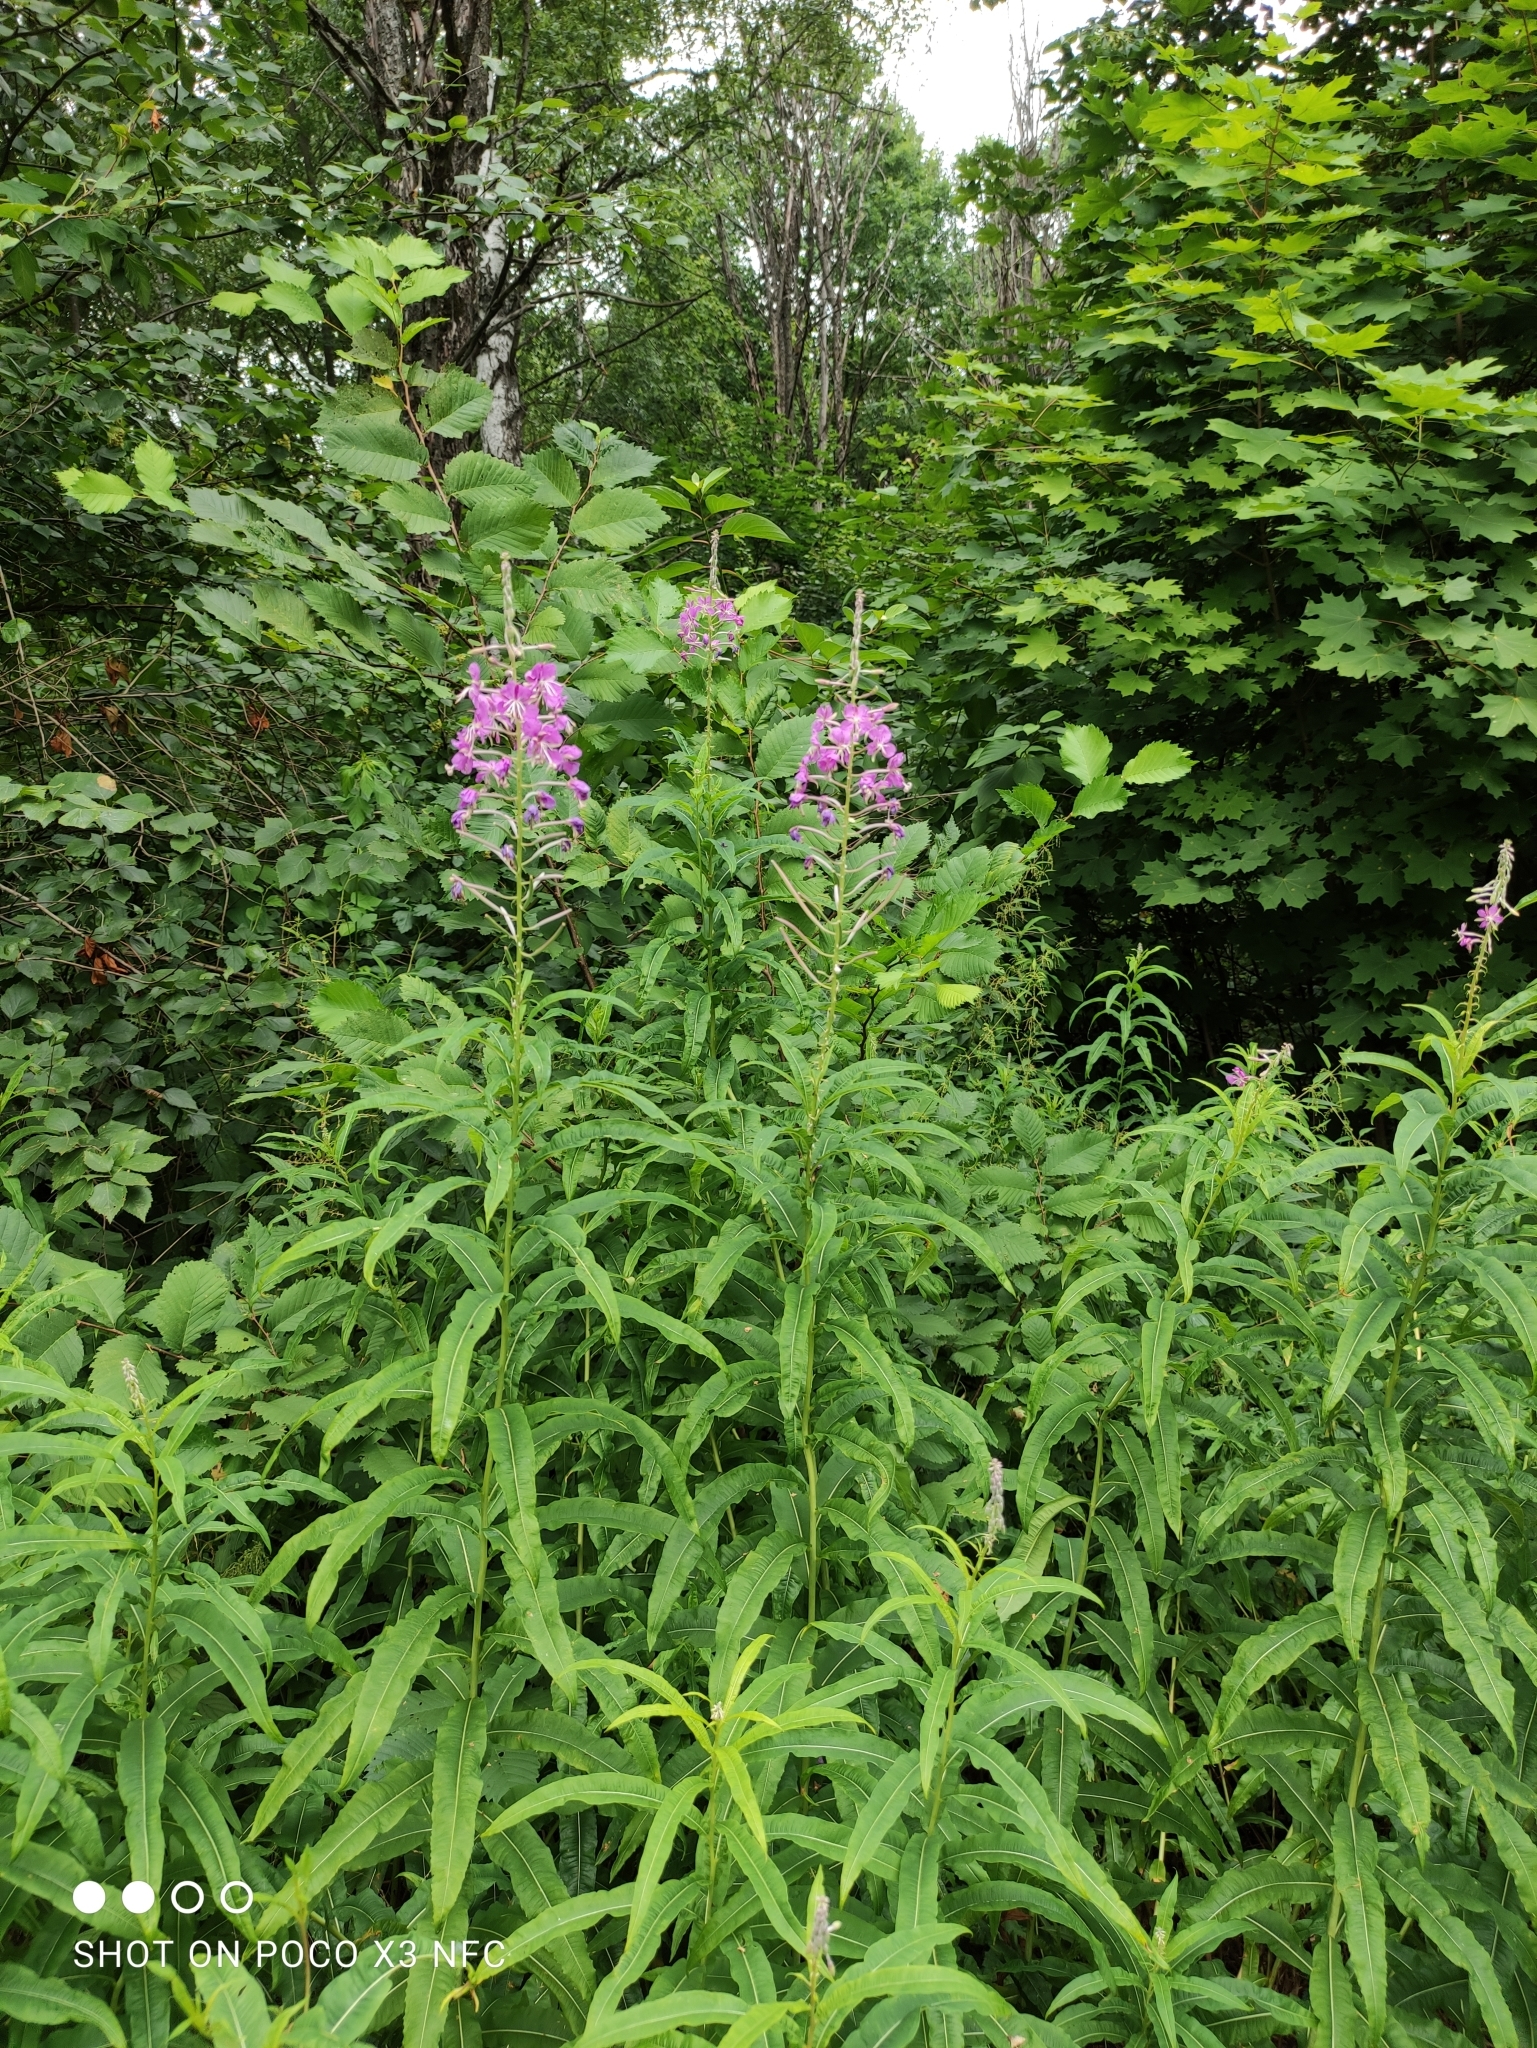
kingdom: Plantae
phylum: Tracheophyta
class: Magnoliopsida
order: Myrtales
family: Onagraceae
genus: Chamaenerion
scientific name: Chamaenerion angustifolium
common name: Fireweed
